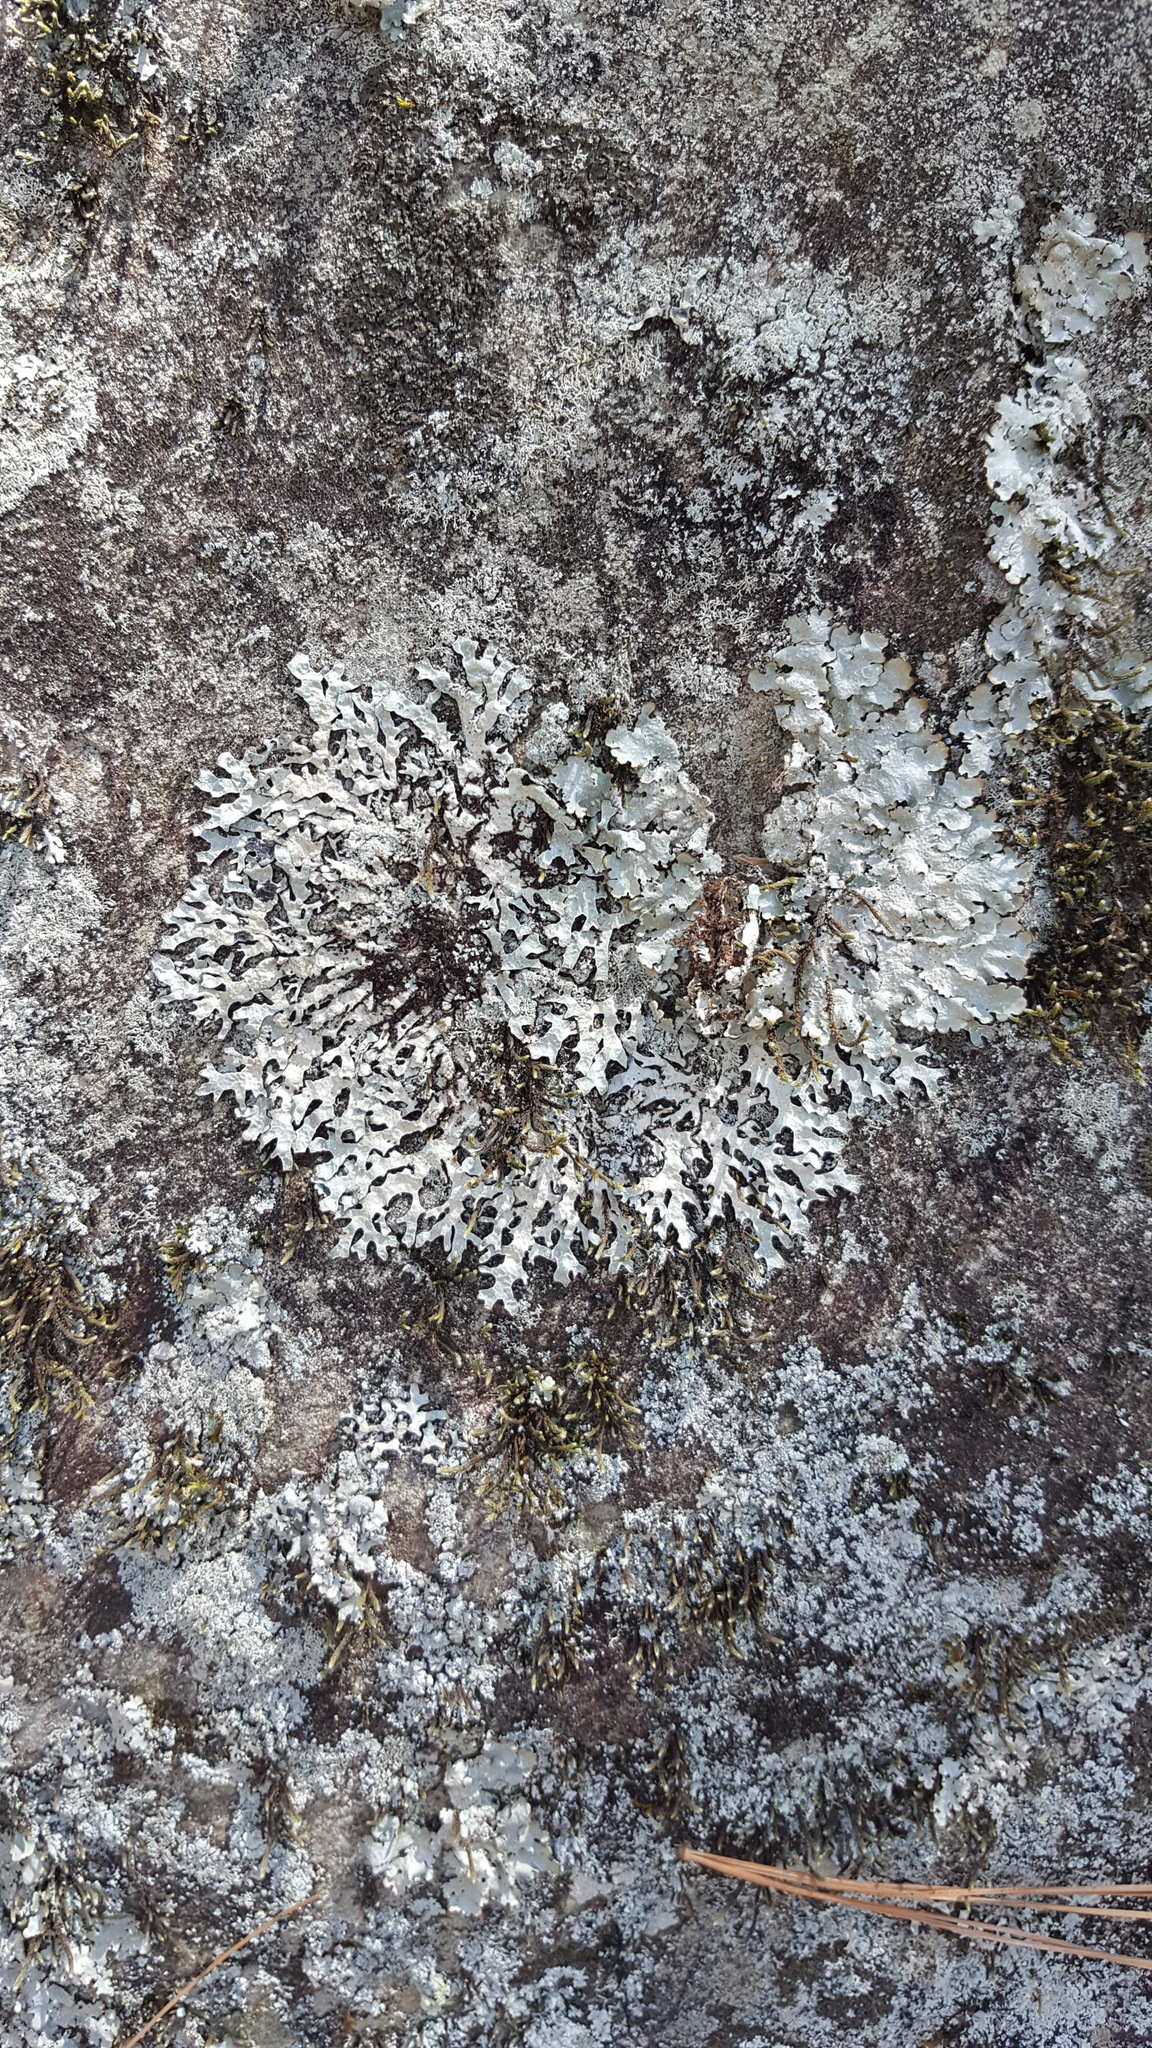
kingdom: Fungi
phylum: Ascomycota
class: Lecanoromycetes
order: Lecanorales
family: Parmeliaceae
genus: Parmelia
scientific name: Parmelia sulcata
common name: Netted shield lichen
